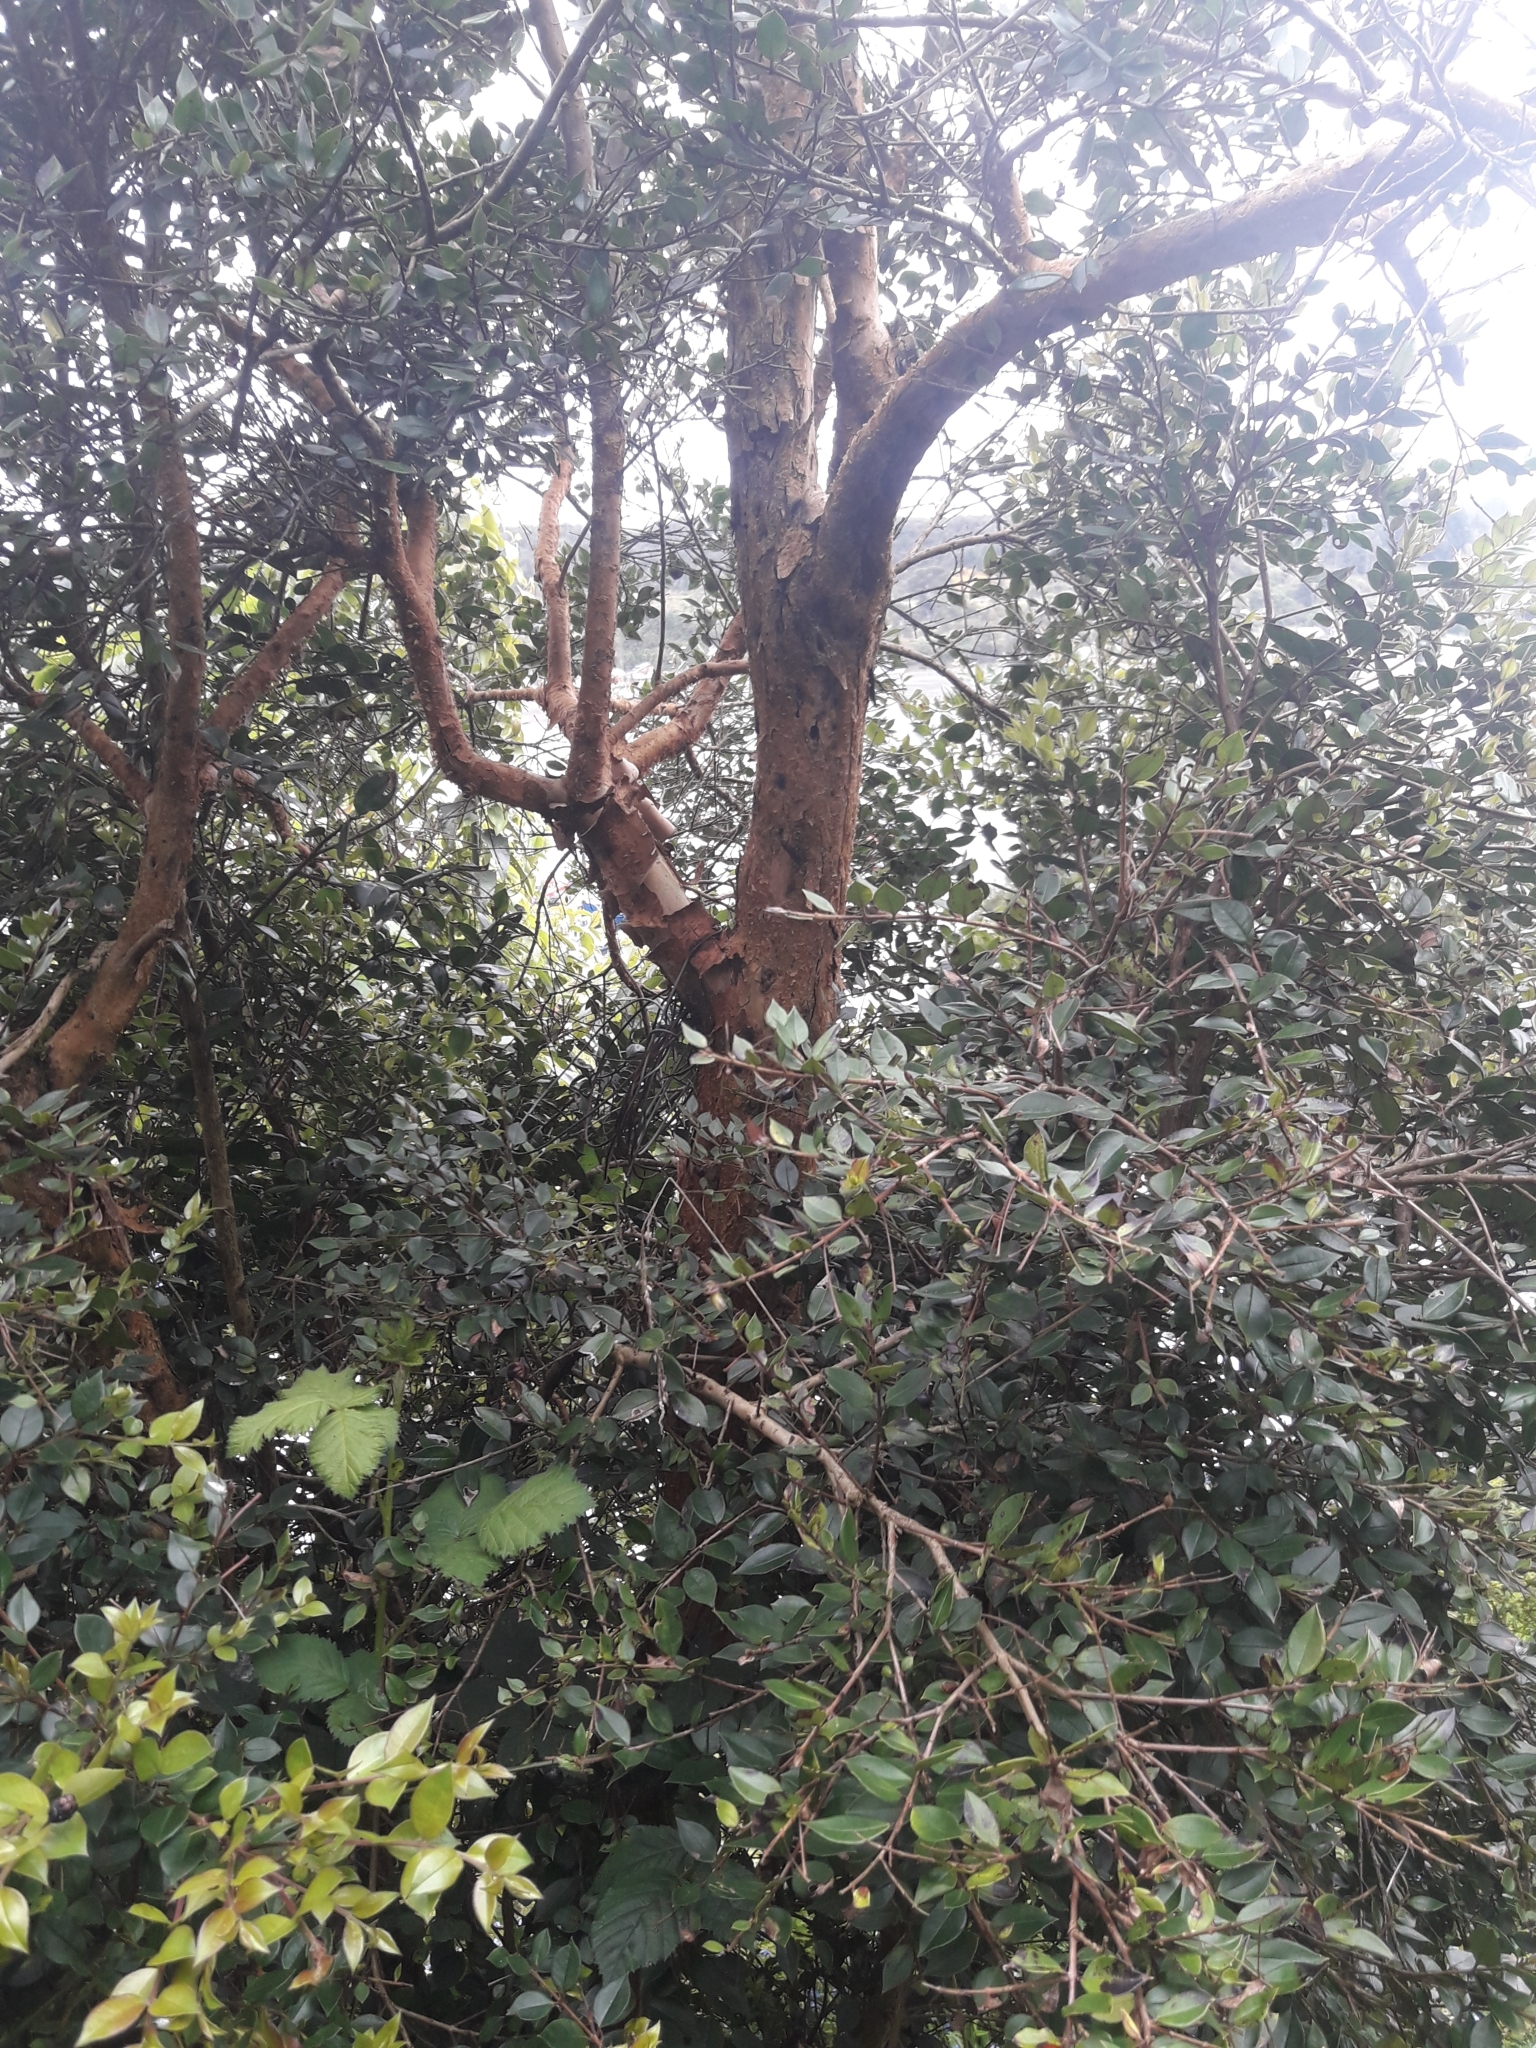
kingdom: Plantae
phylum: Tracheophyta
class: Magnoliopsida
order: Myrtales
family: Myrtaceae
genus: Luma
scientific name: Luma apiculata
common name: Chilean myrtle
